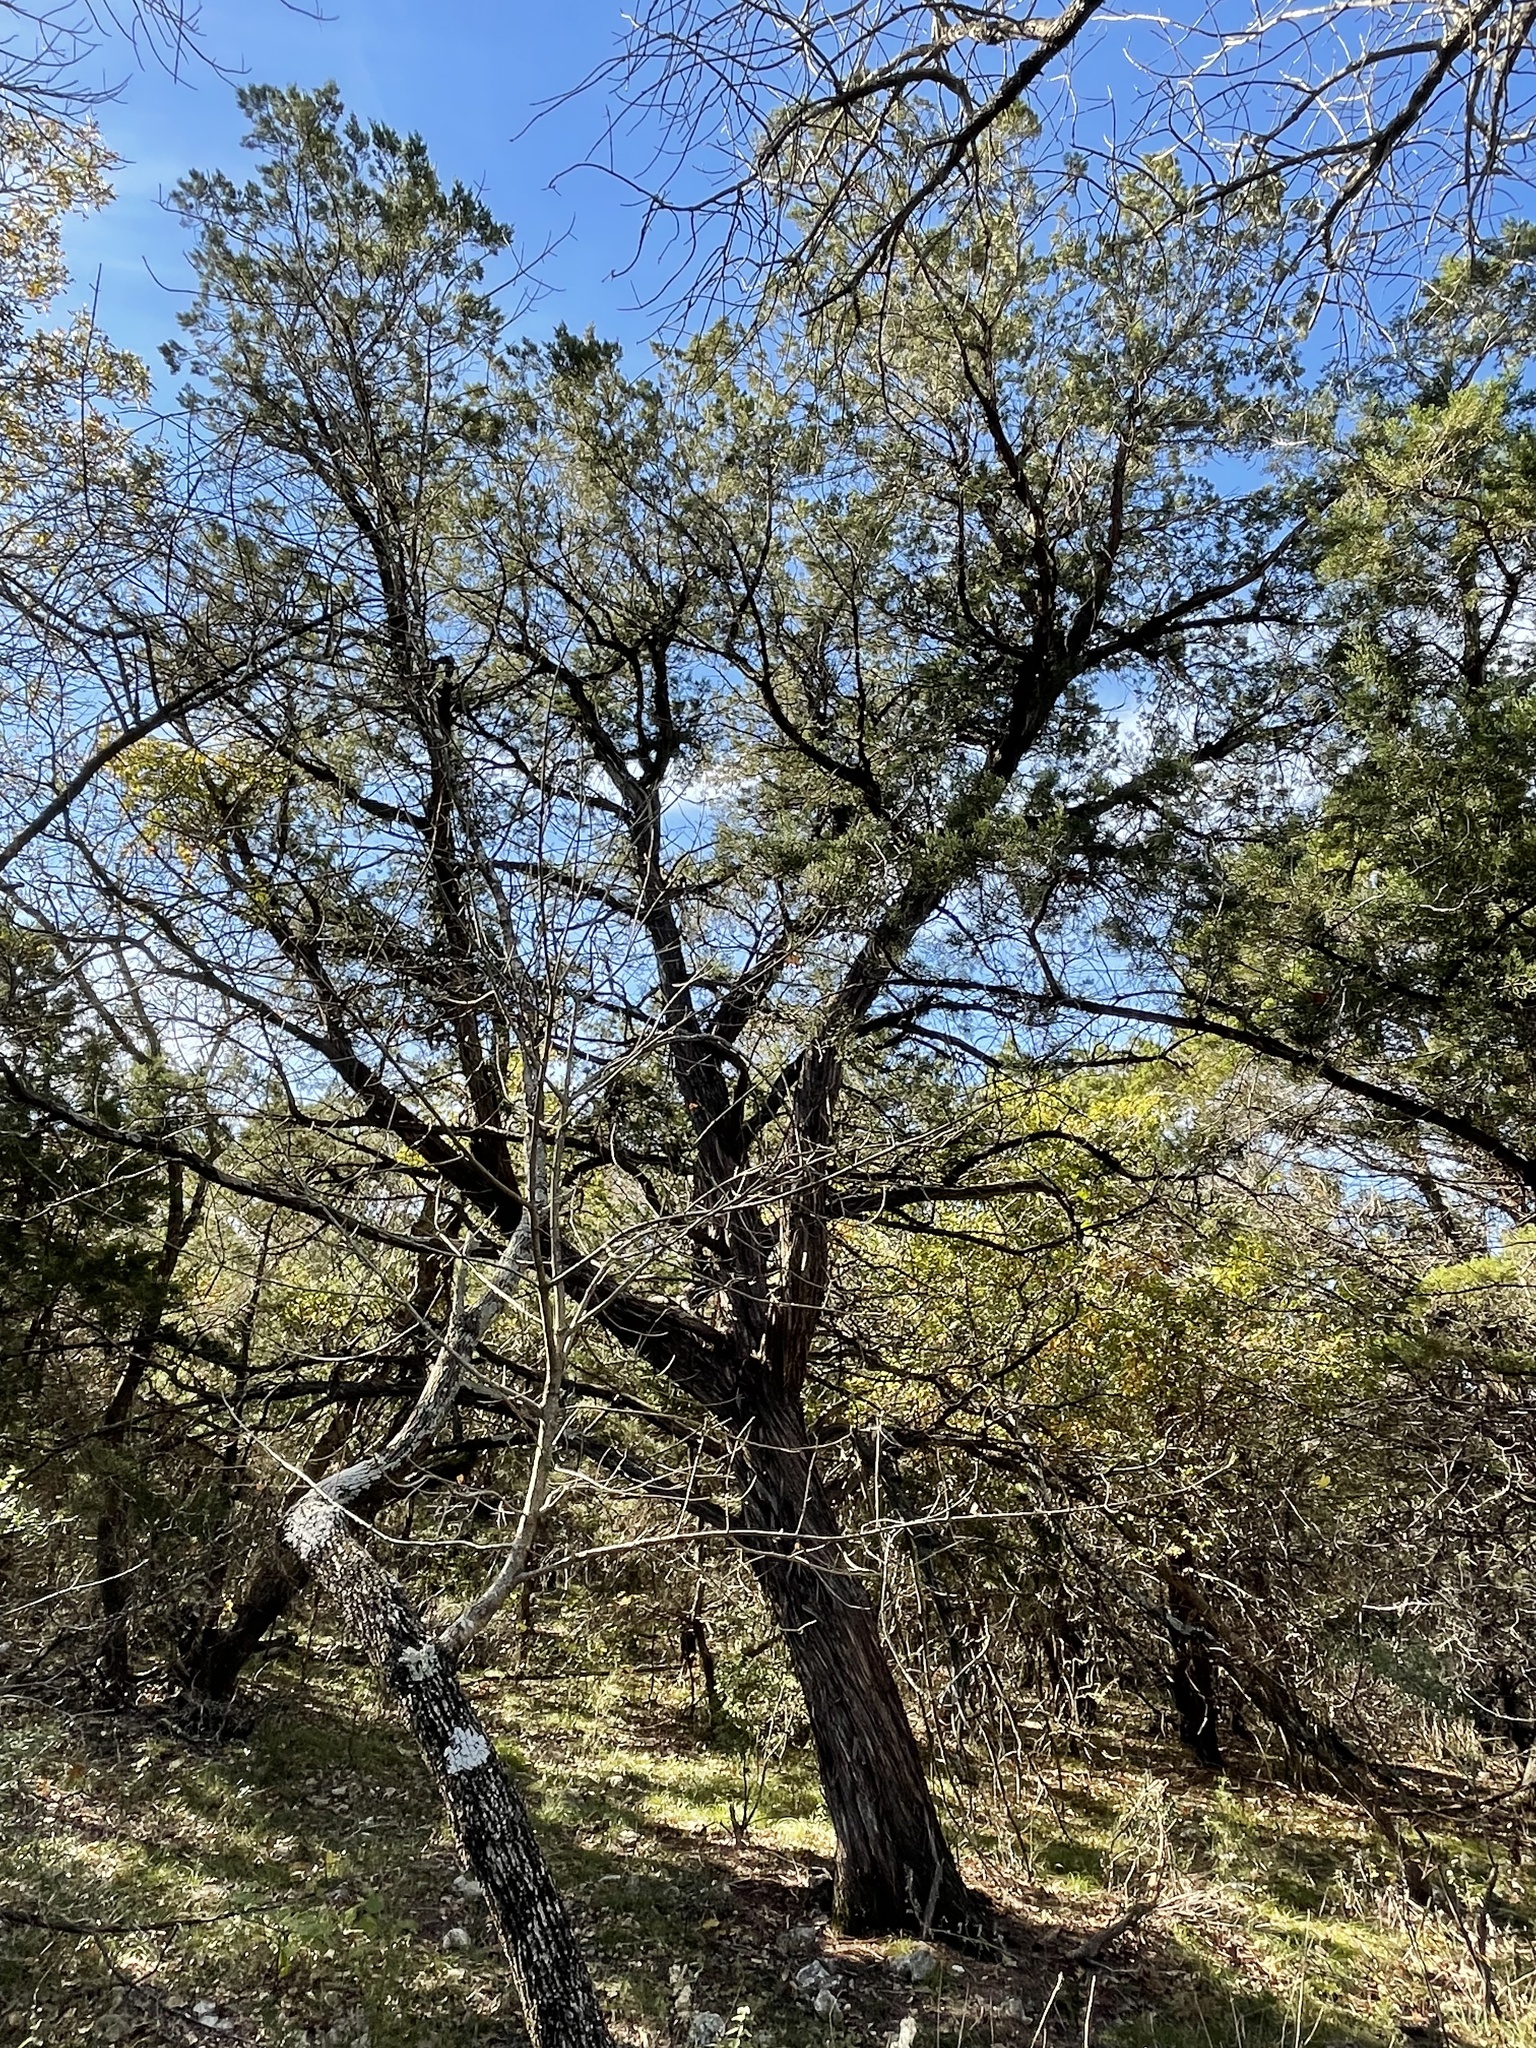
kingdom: Plantae
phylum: Tracheophyta
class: Pinopsida
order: Pinales
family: Cupressaceae
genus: Juniperus
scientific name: Juniperus ashei
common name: Mexican juniper
